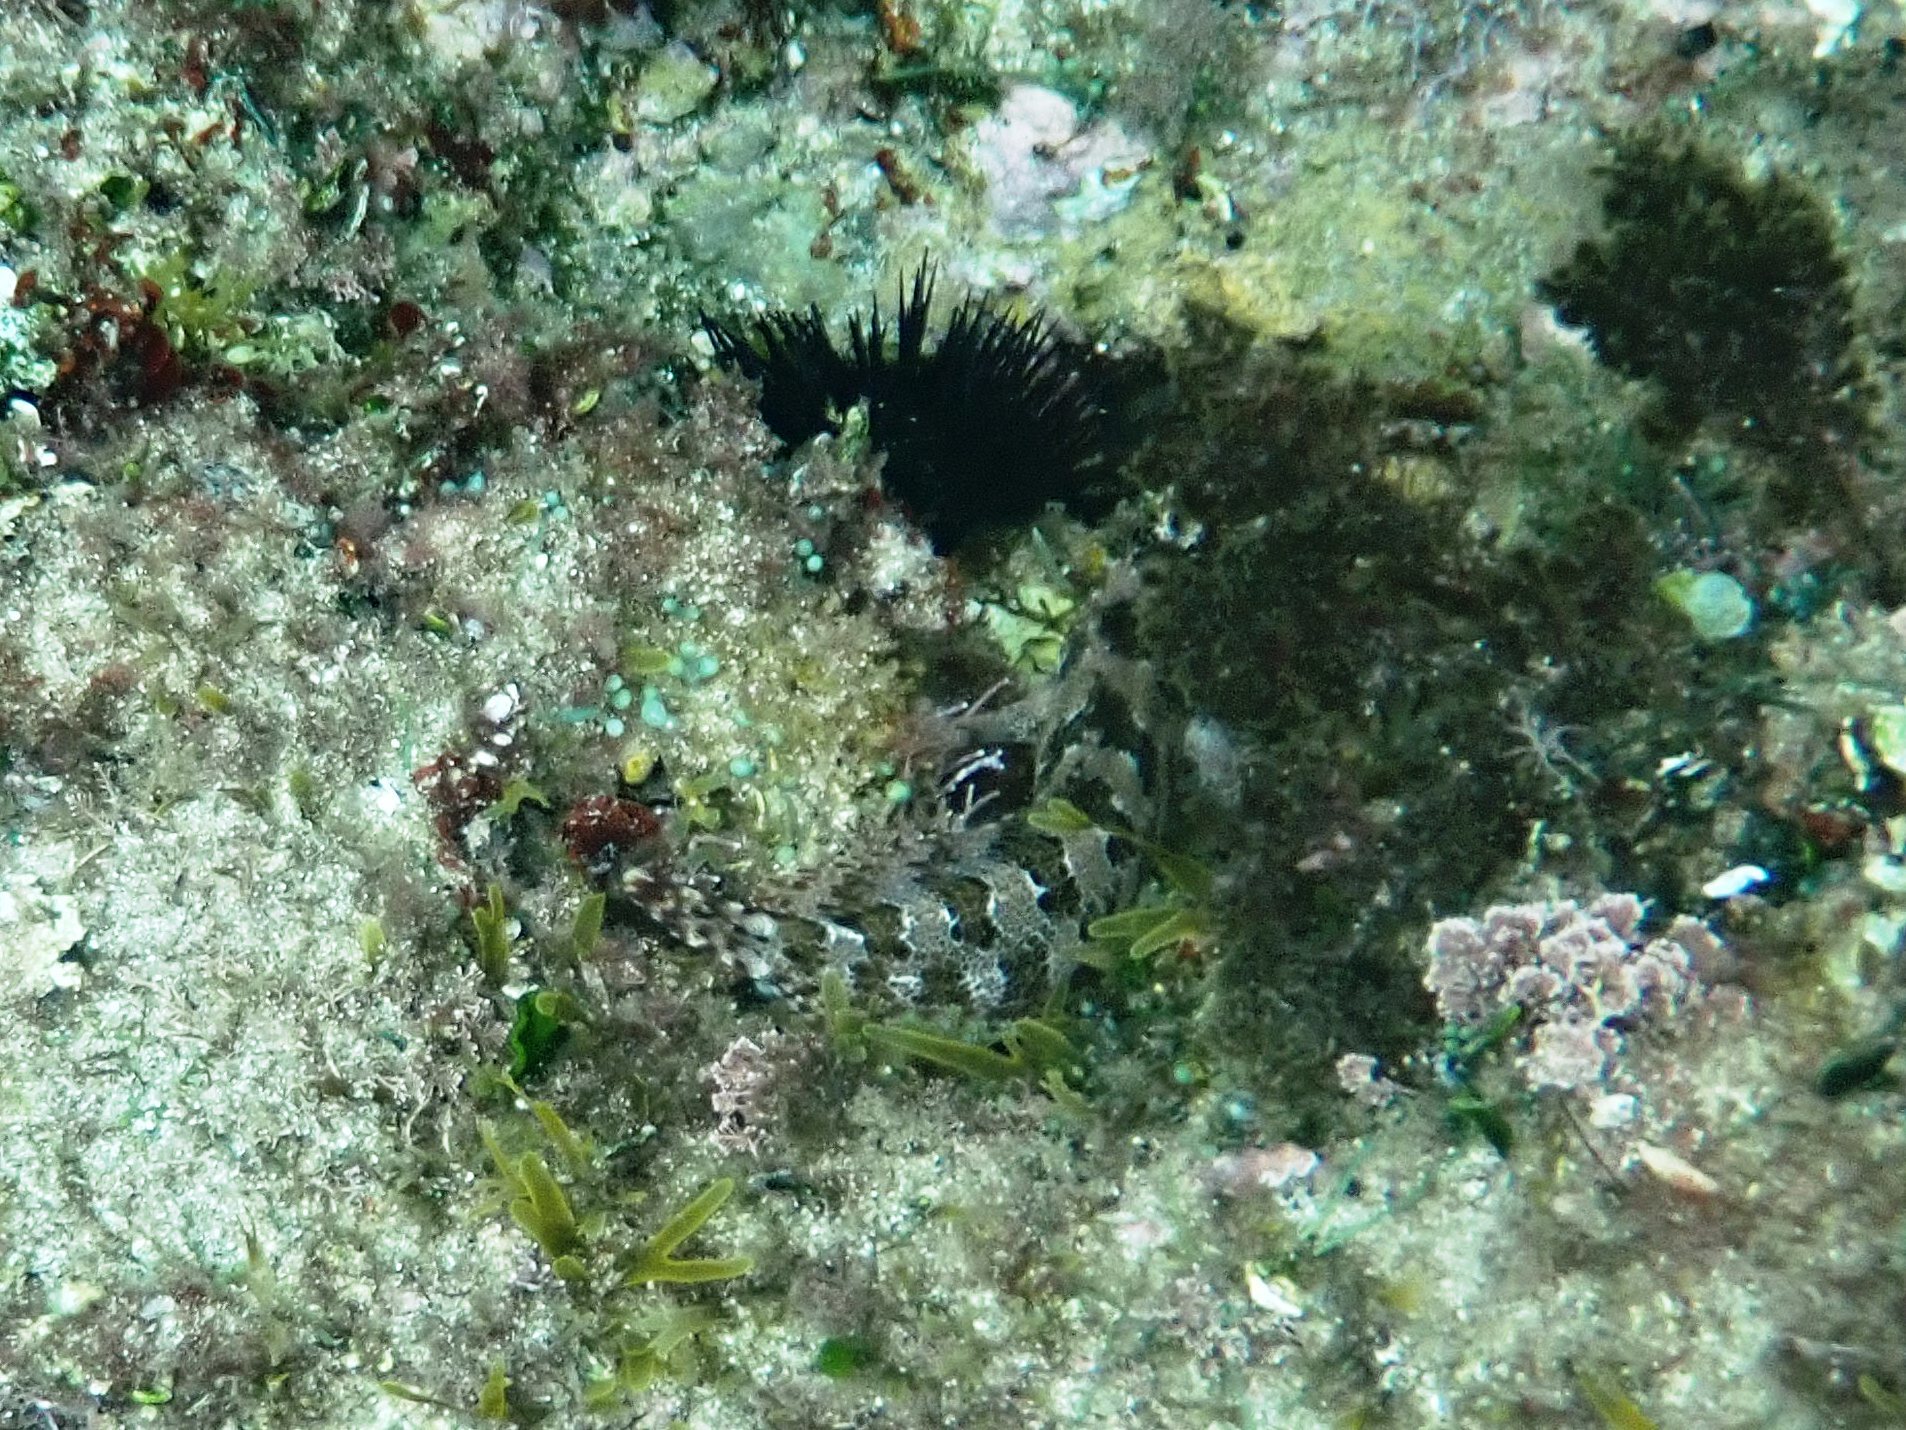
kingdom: Animalia
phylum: Chordata
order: Perciformes
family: Blenniidae
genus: Parablennius
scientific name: Parablennius gattorugine
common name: Tompot blenny
